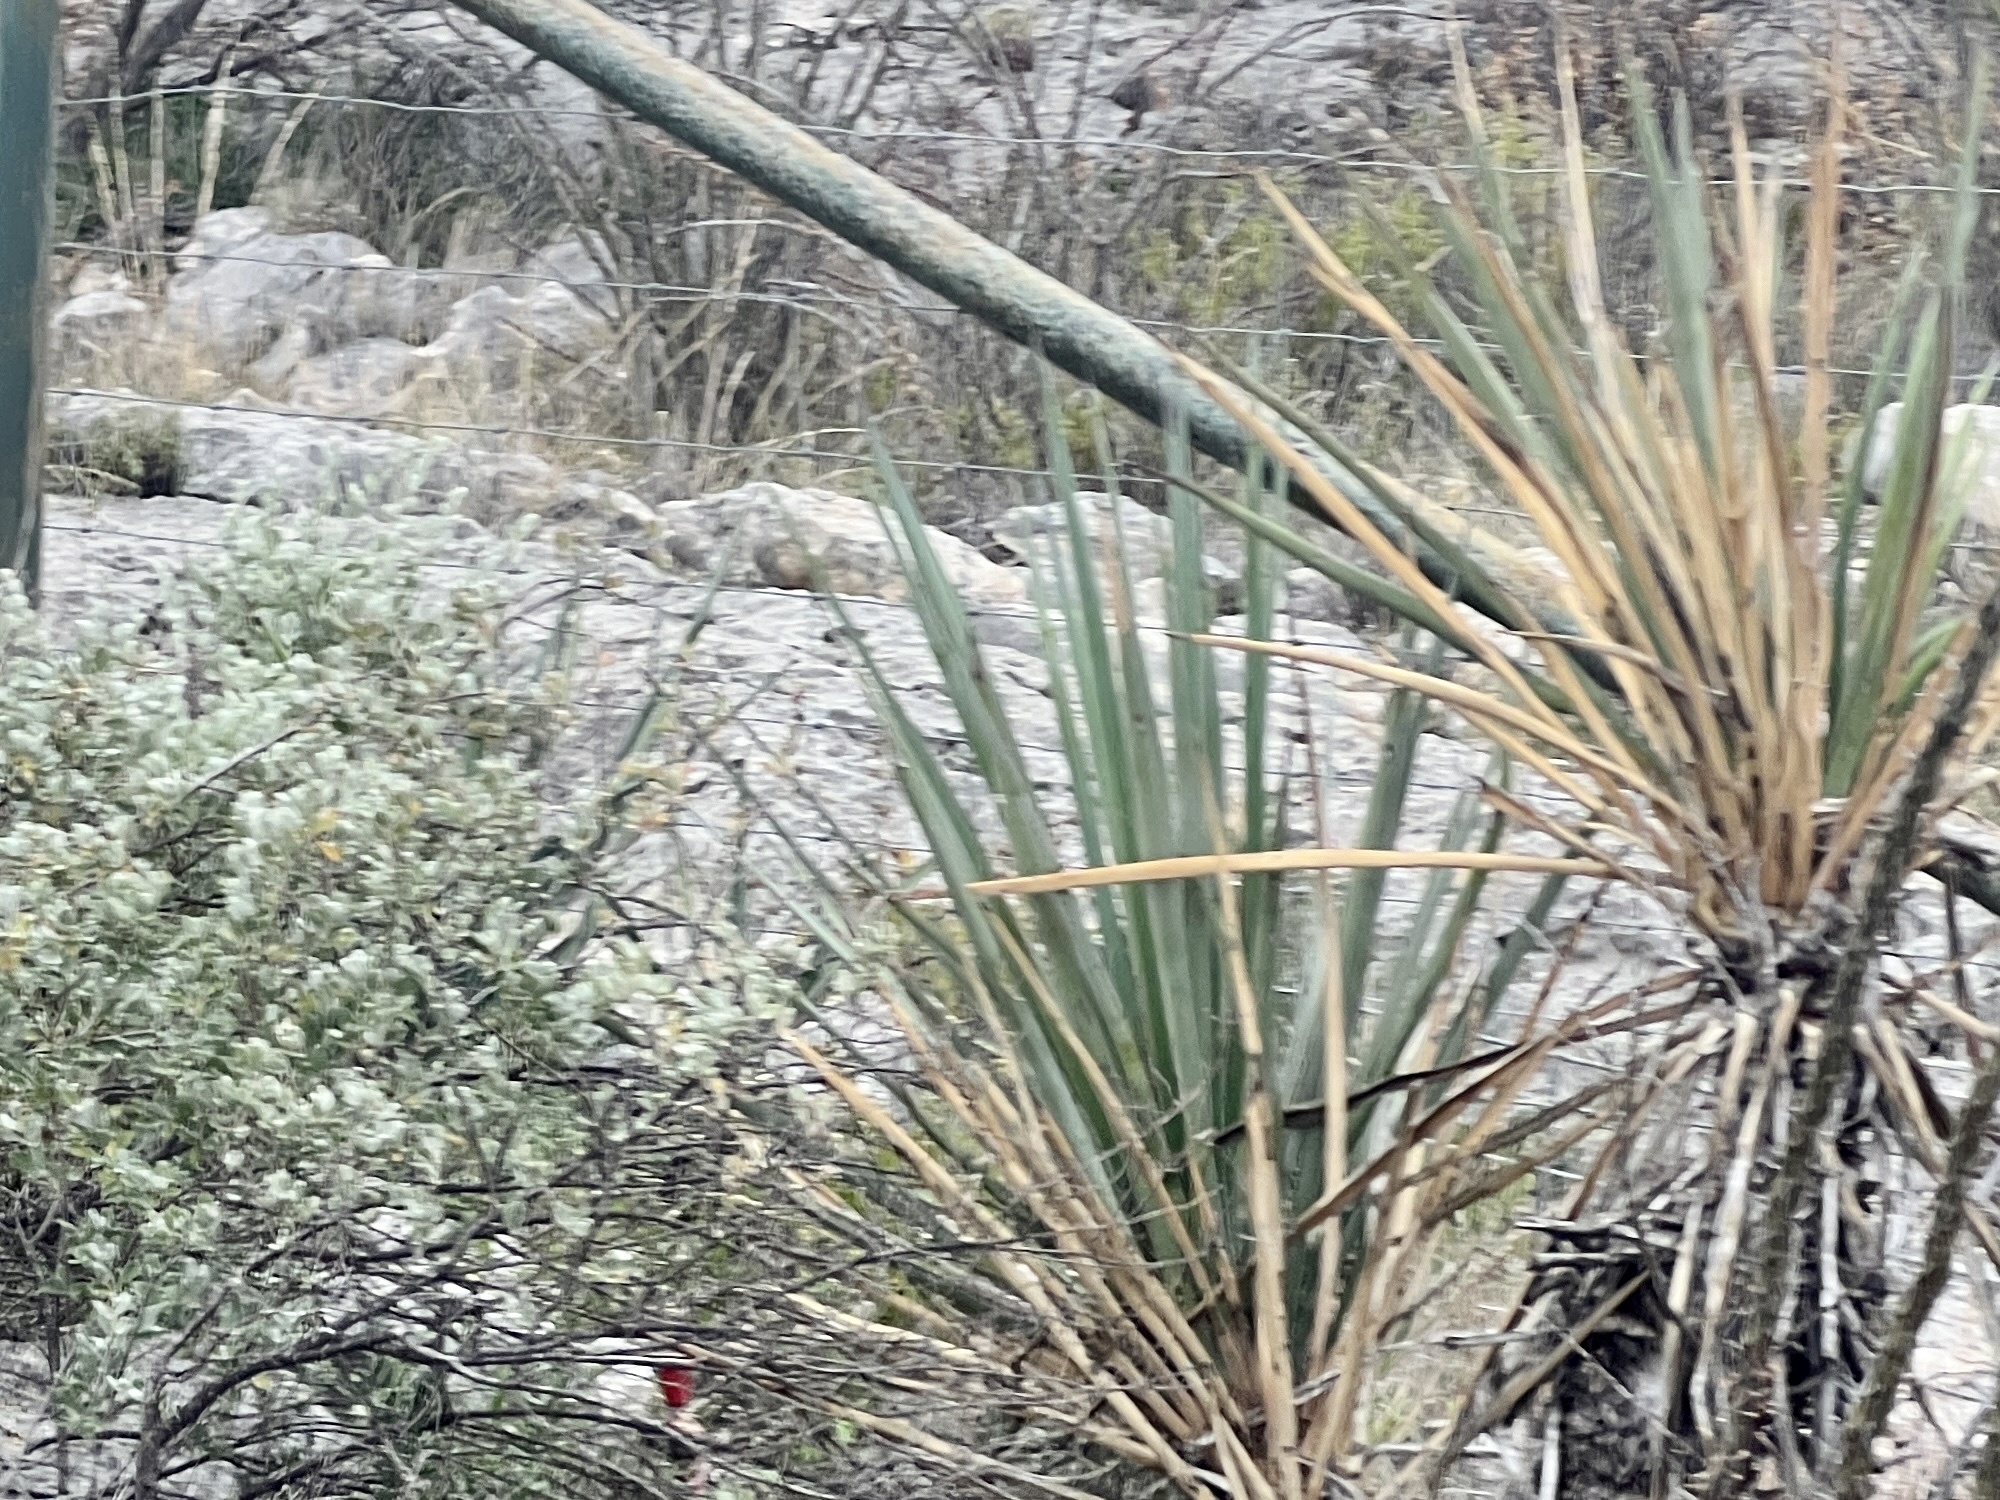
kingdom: Plantae
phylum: Tracheophyta
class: Liliopsida
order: Asparagales
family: Asparagaceae
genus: Yucca
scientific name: Yucca treculiana
